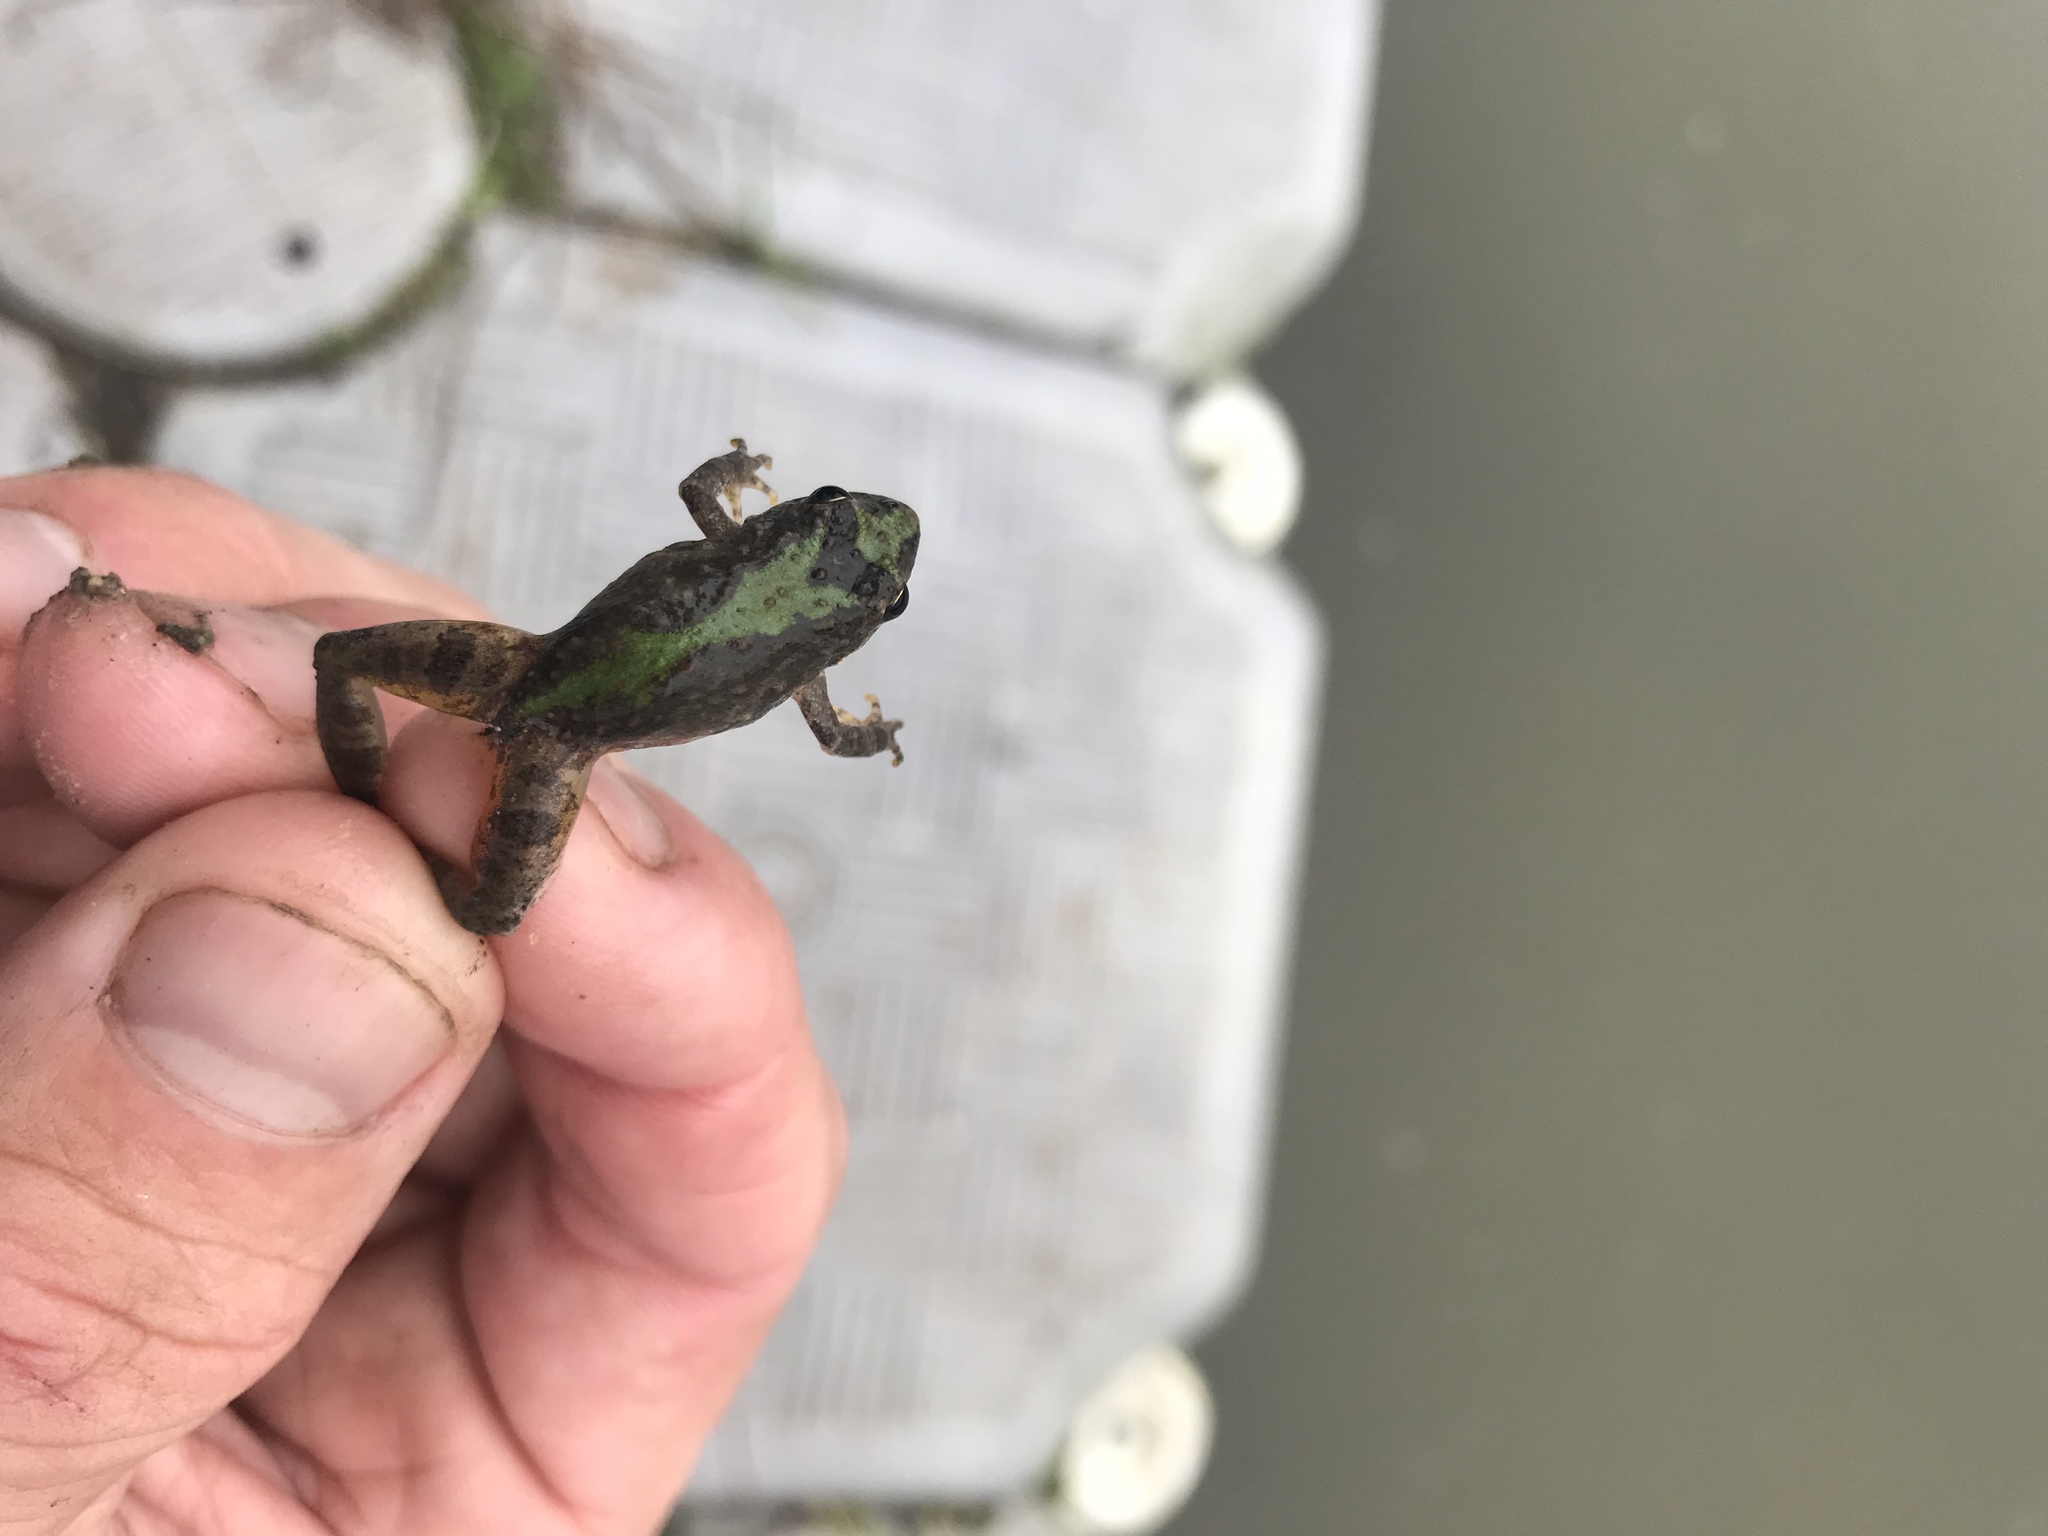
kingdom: Animalia
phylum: Chordata
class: Amphibia
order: Anura
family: Hylidae
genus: Acris
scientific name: Acris blanchardi
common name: Blanchard's cricket frog
